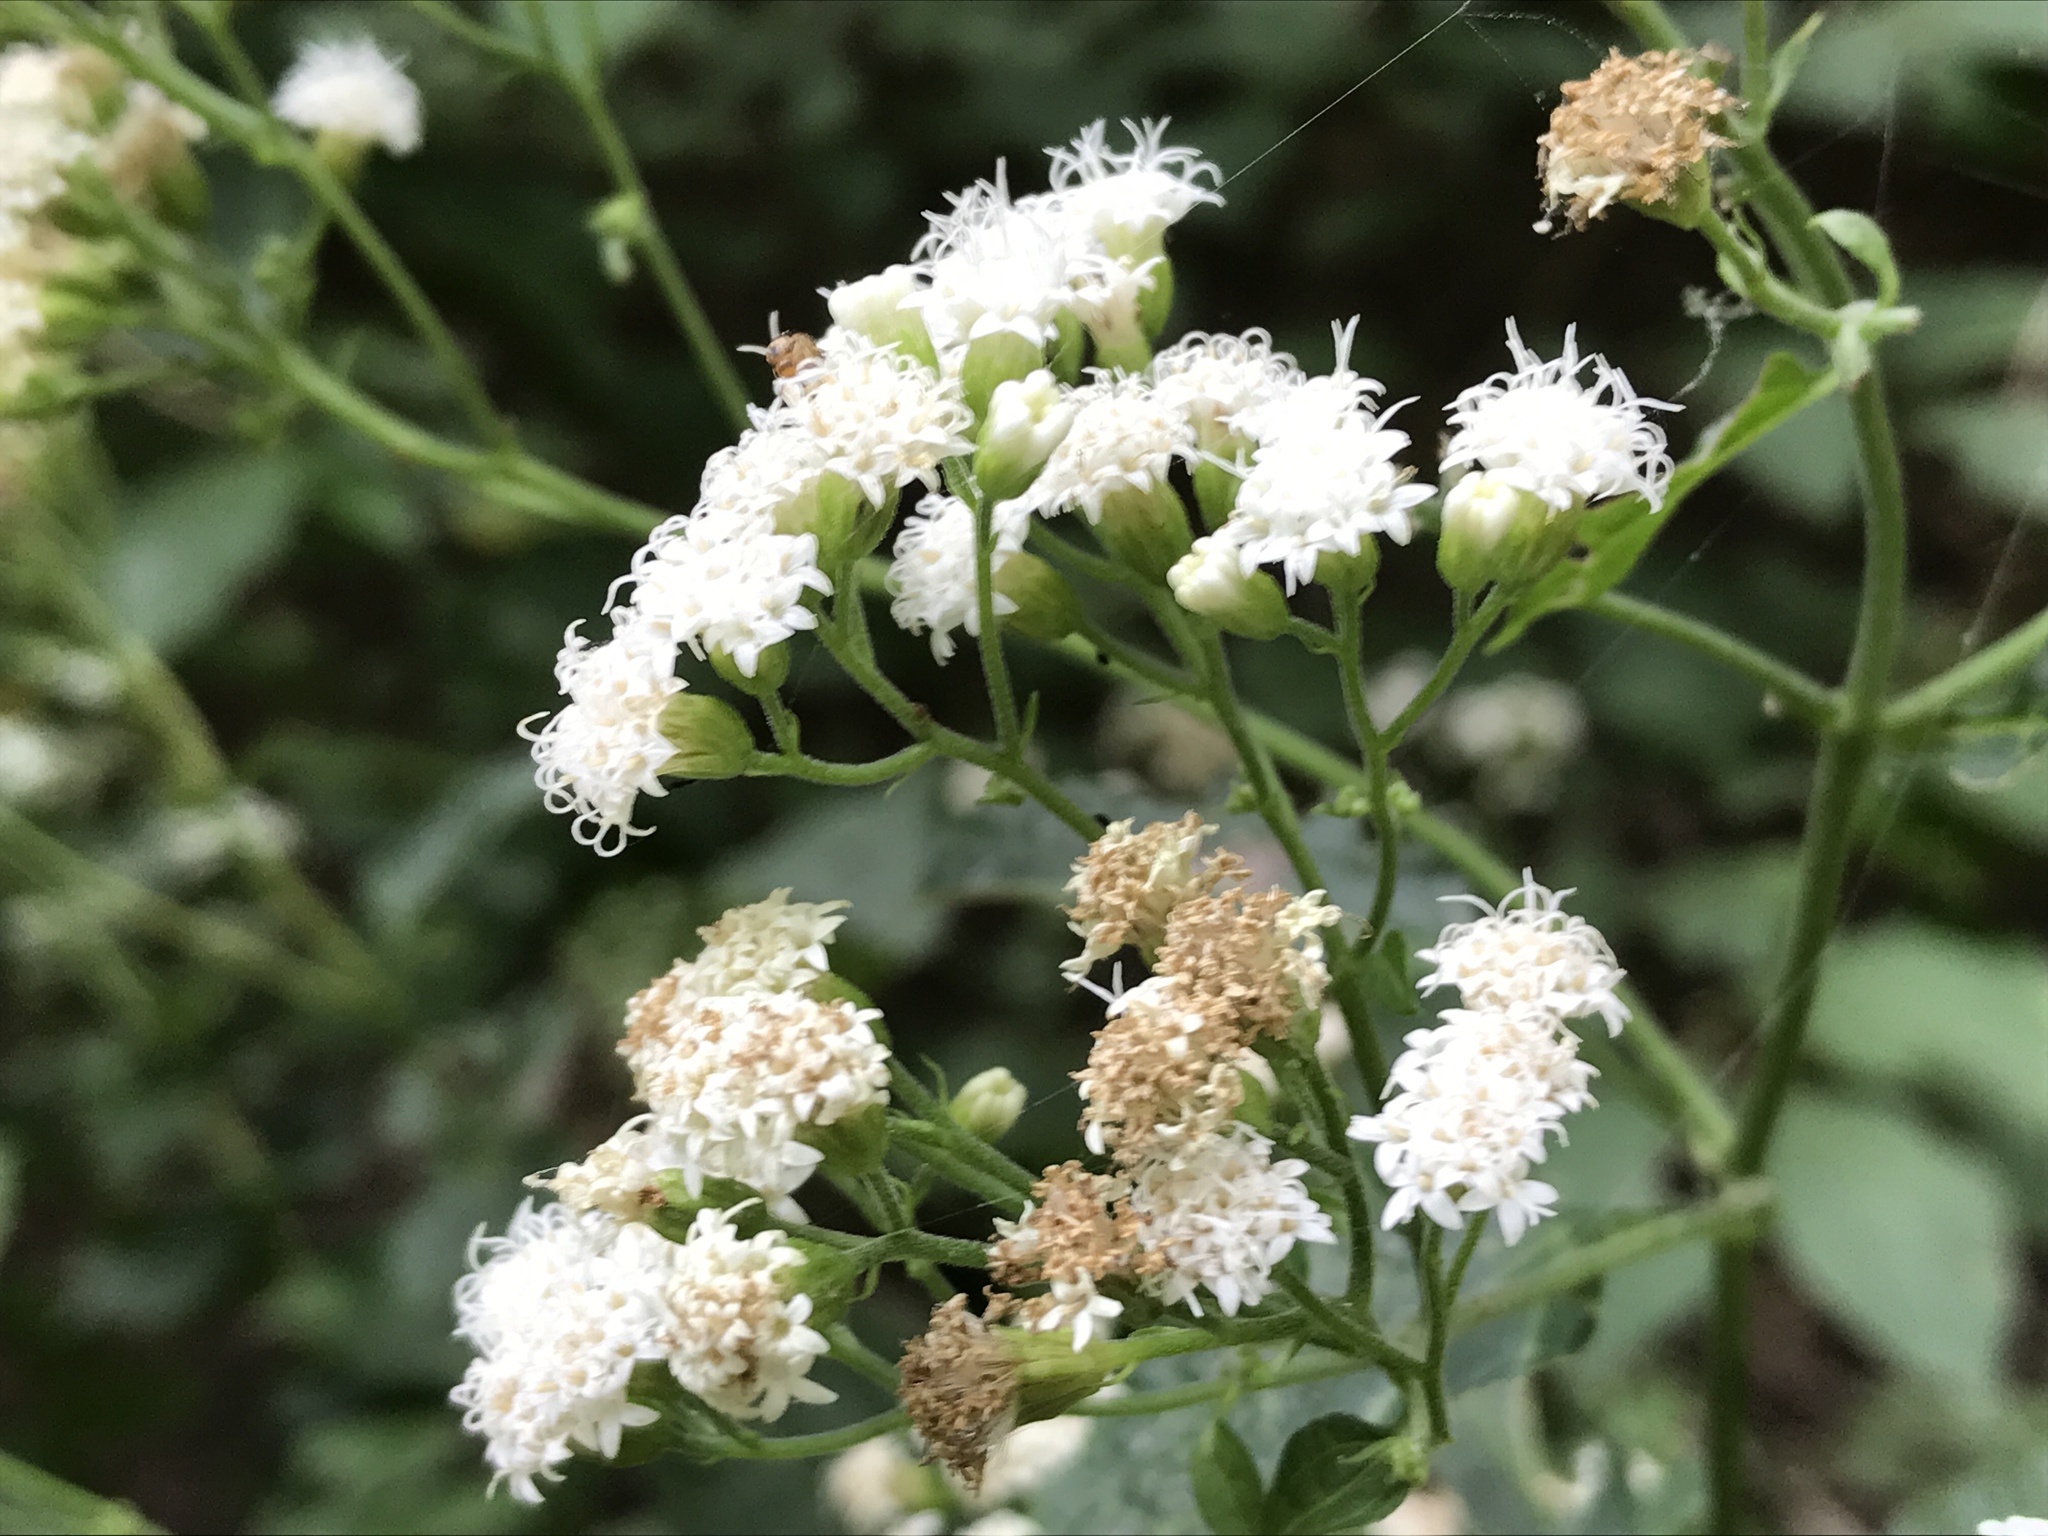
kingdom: Plantae
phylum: Tracheophyta
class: Magnoliopsida
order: Asterales
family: Asteraceae
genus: Ageratina
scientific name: Ageratina altissima
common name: White snakeroot
